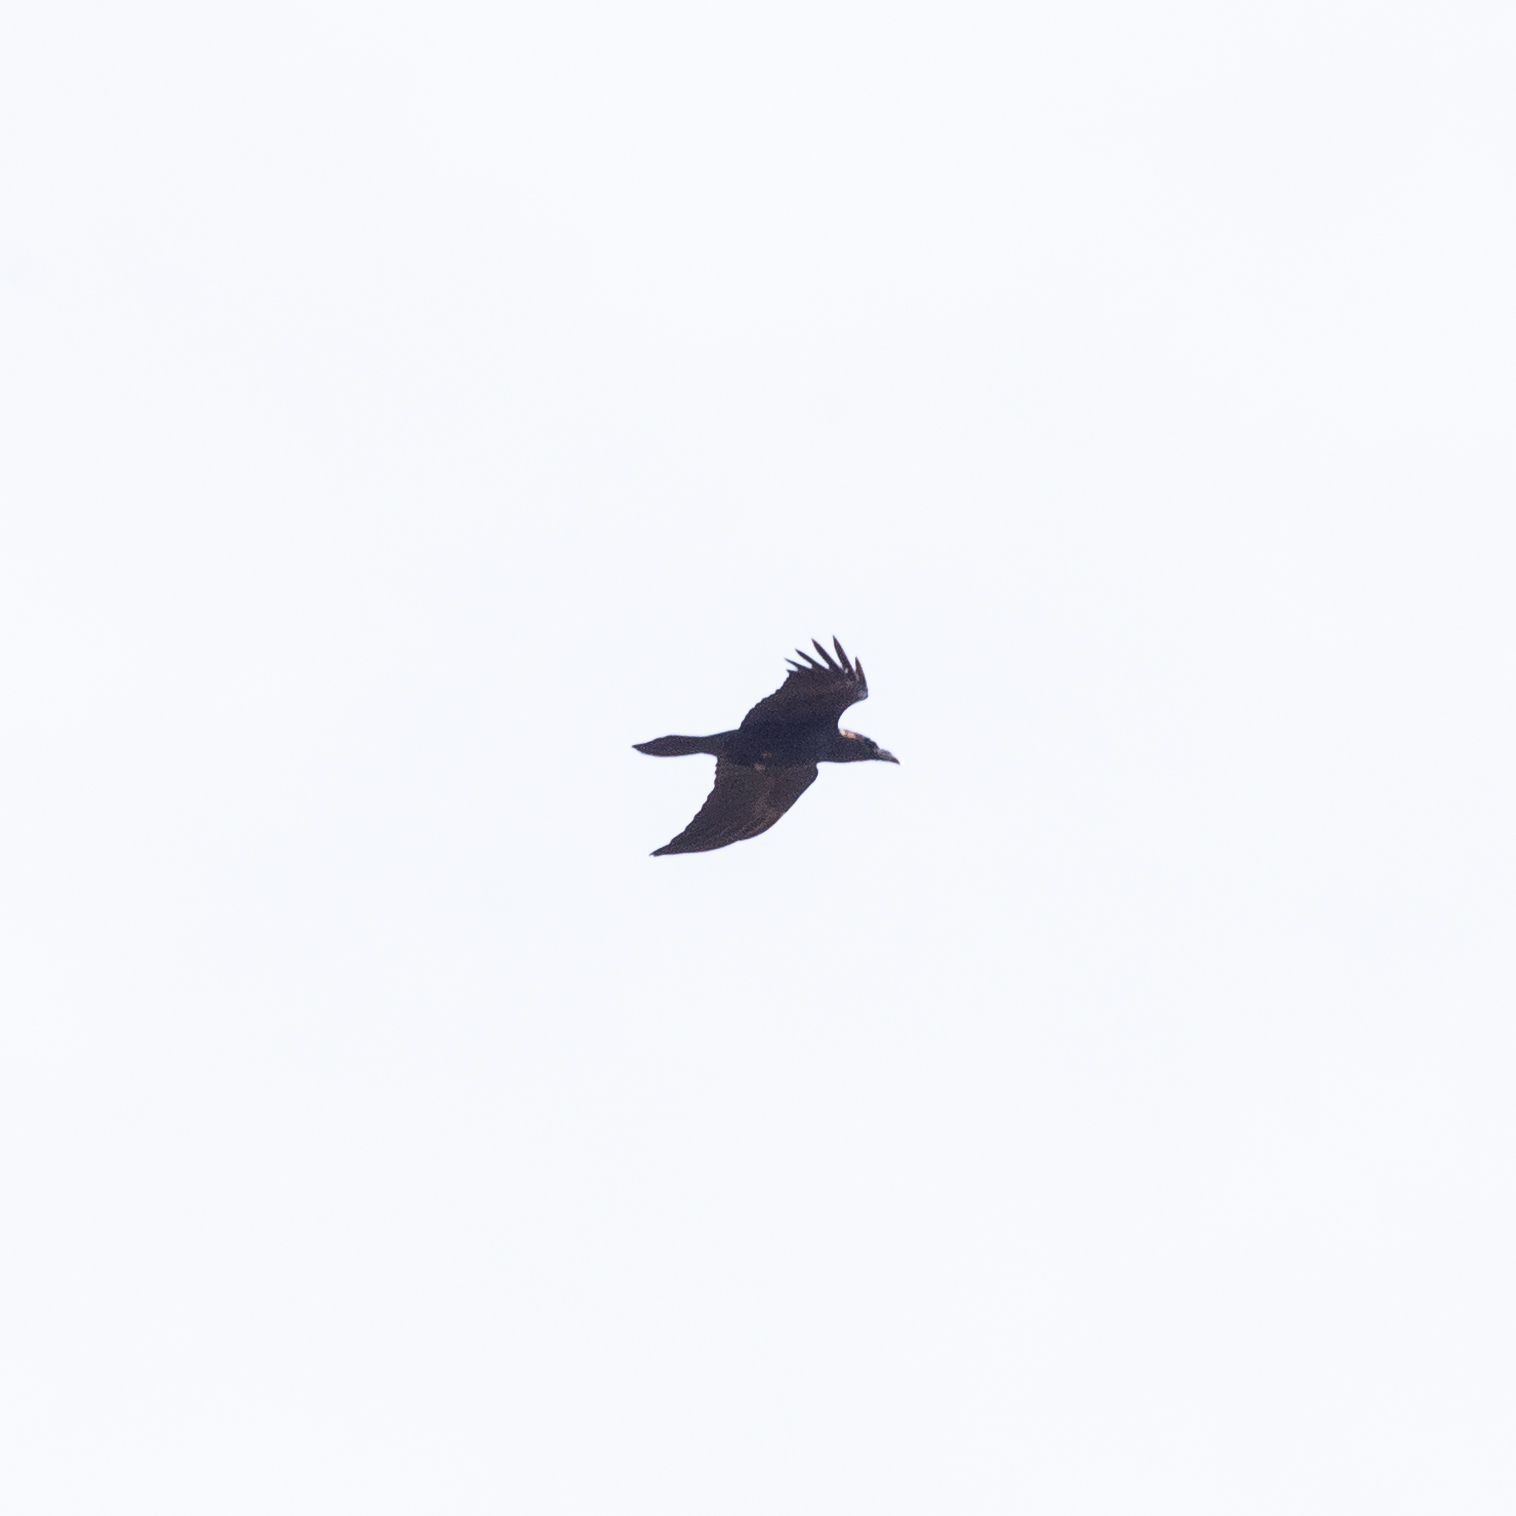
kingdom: Animalia
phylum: Chordata
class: Aves
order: Passeriformes
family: Corvidae
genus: Corvus
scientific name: Corvus corax
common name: Common raven
